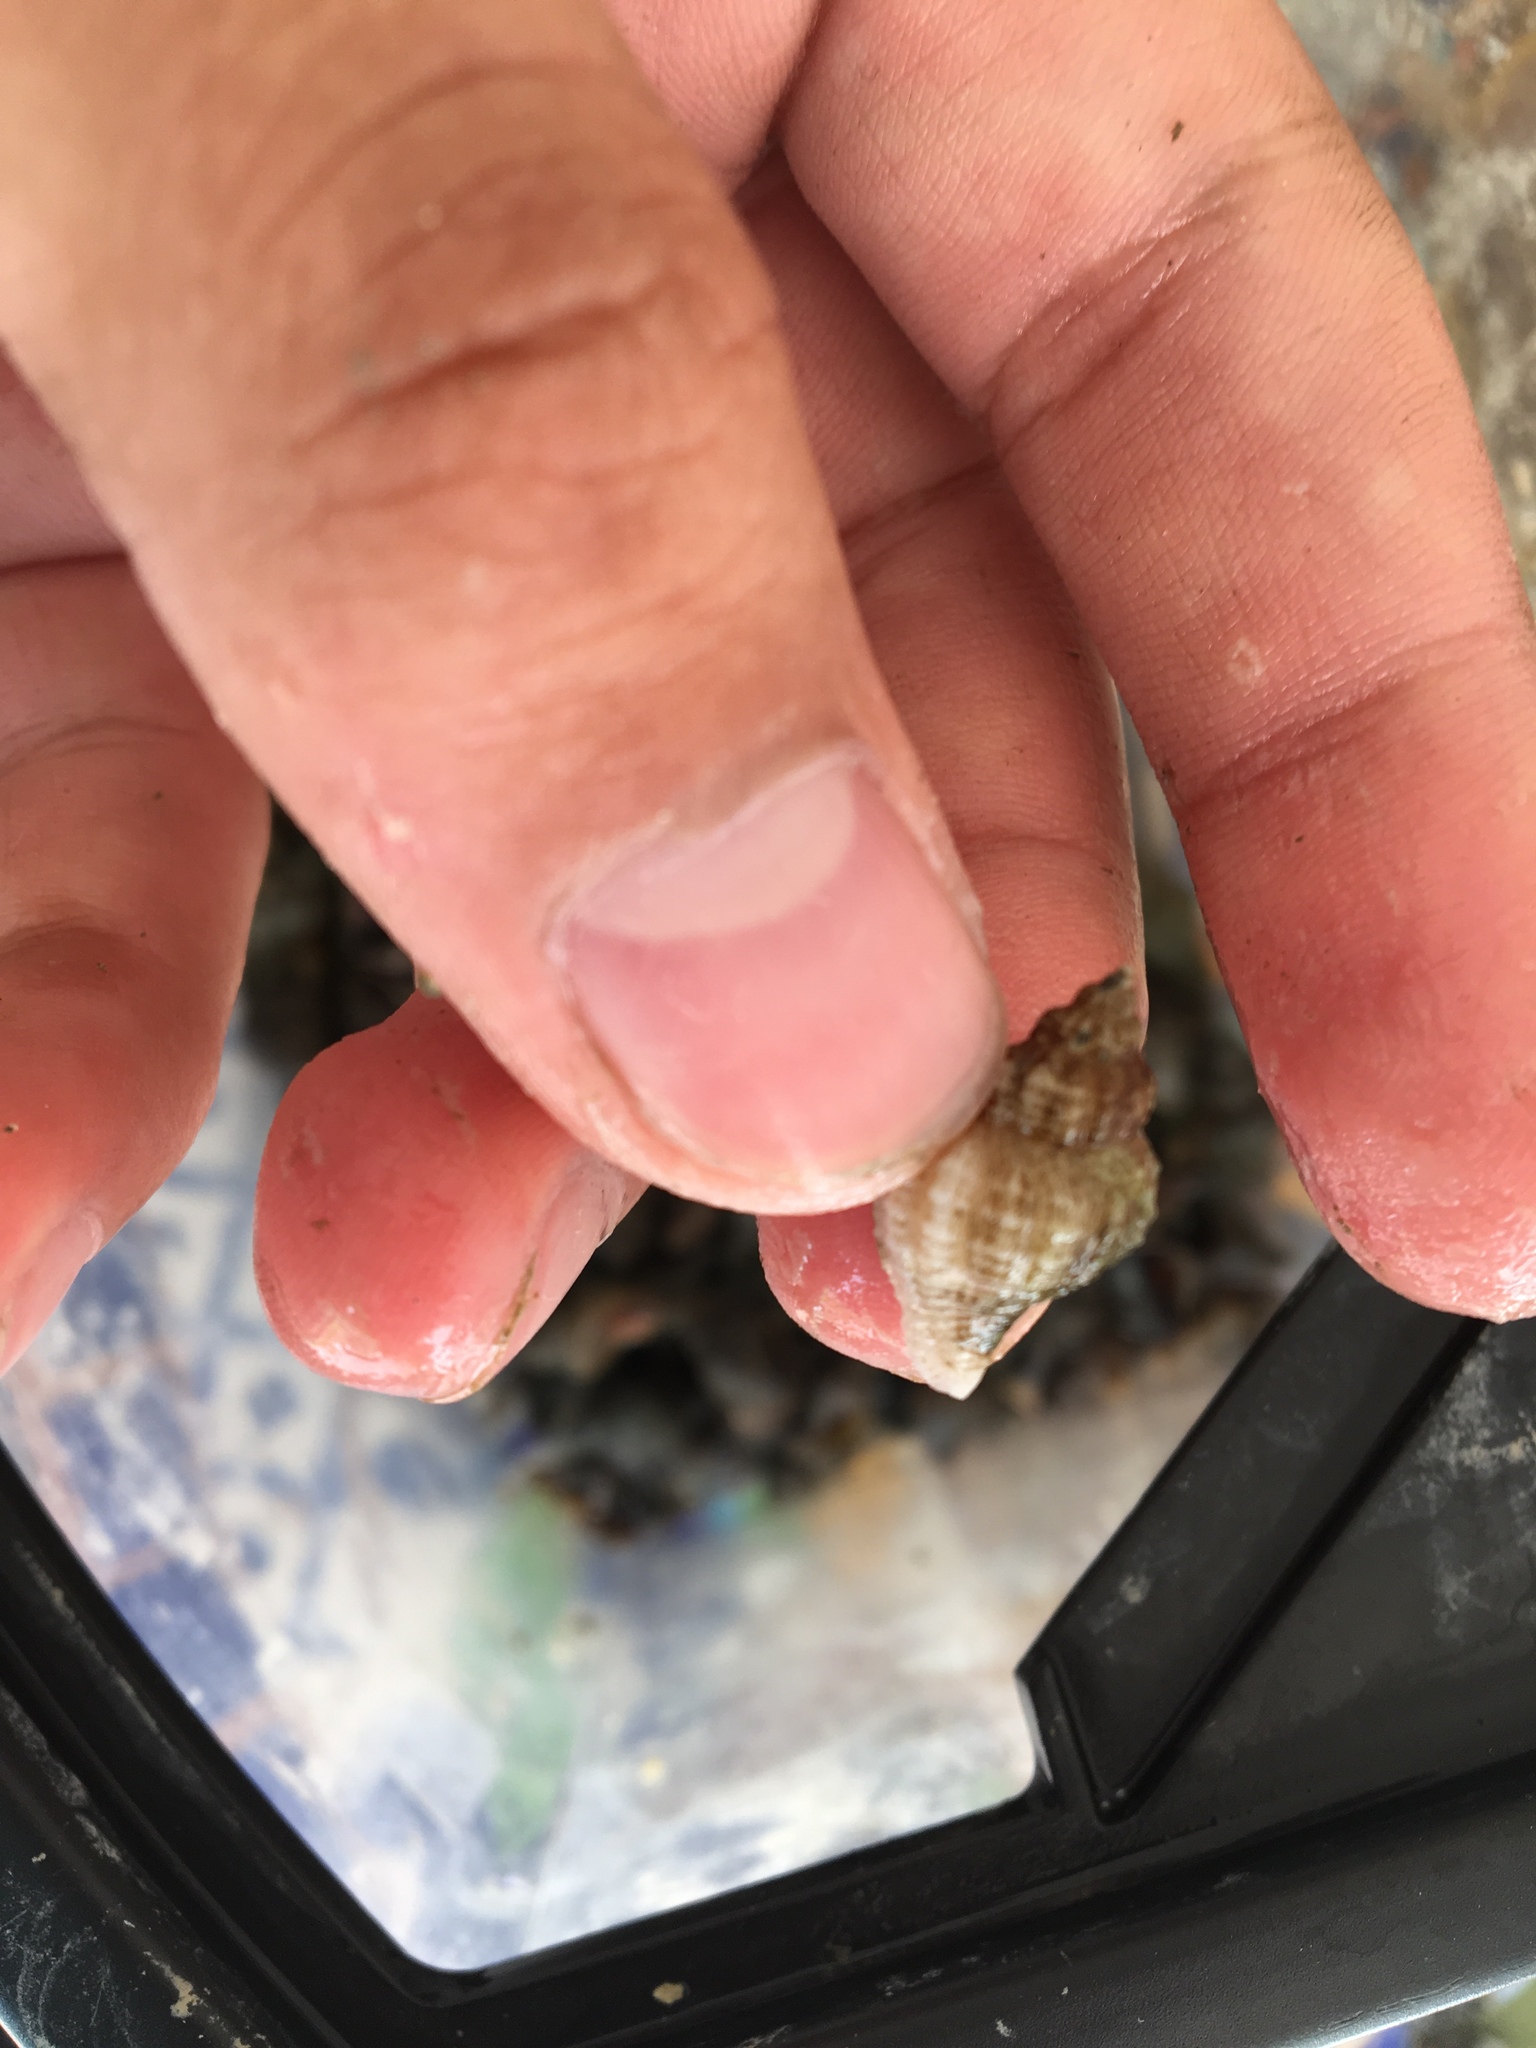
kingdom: Animalia
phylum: Mollusca
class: Gastropoda
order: Neogastropoda
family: Muricidae
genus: Urosalpinx
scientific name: Urosalpinx cinerea
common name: American sting winkle
